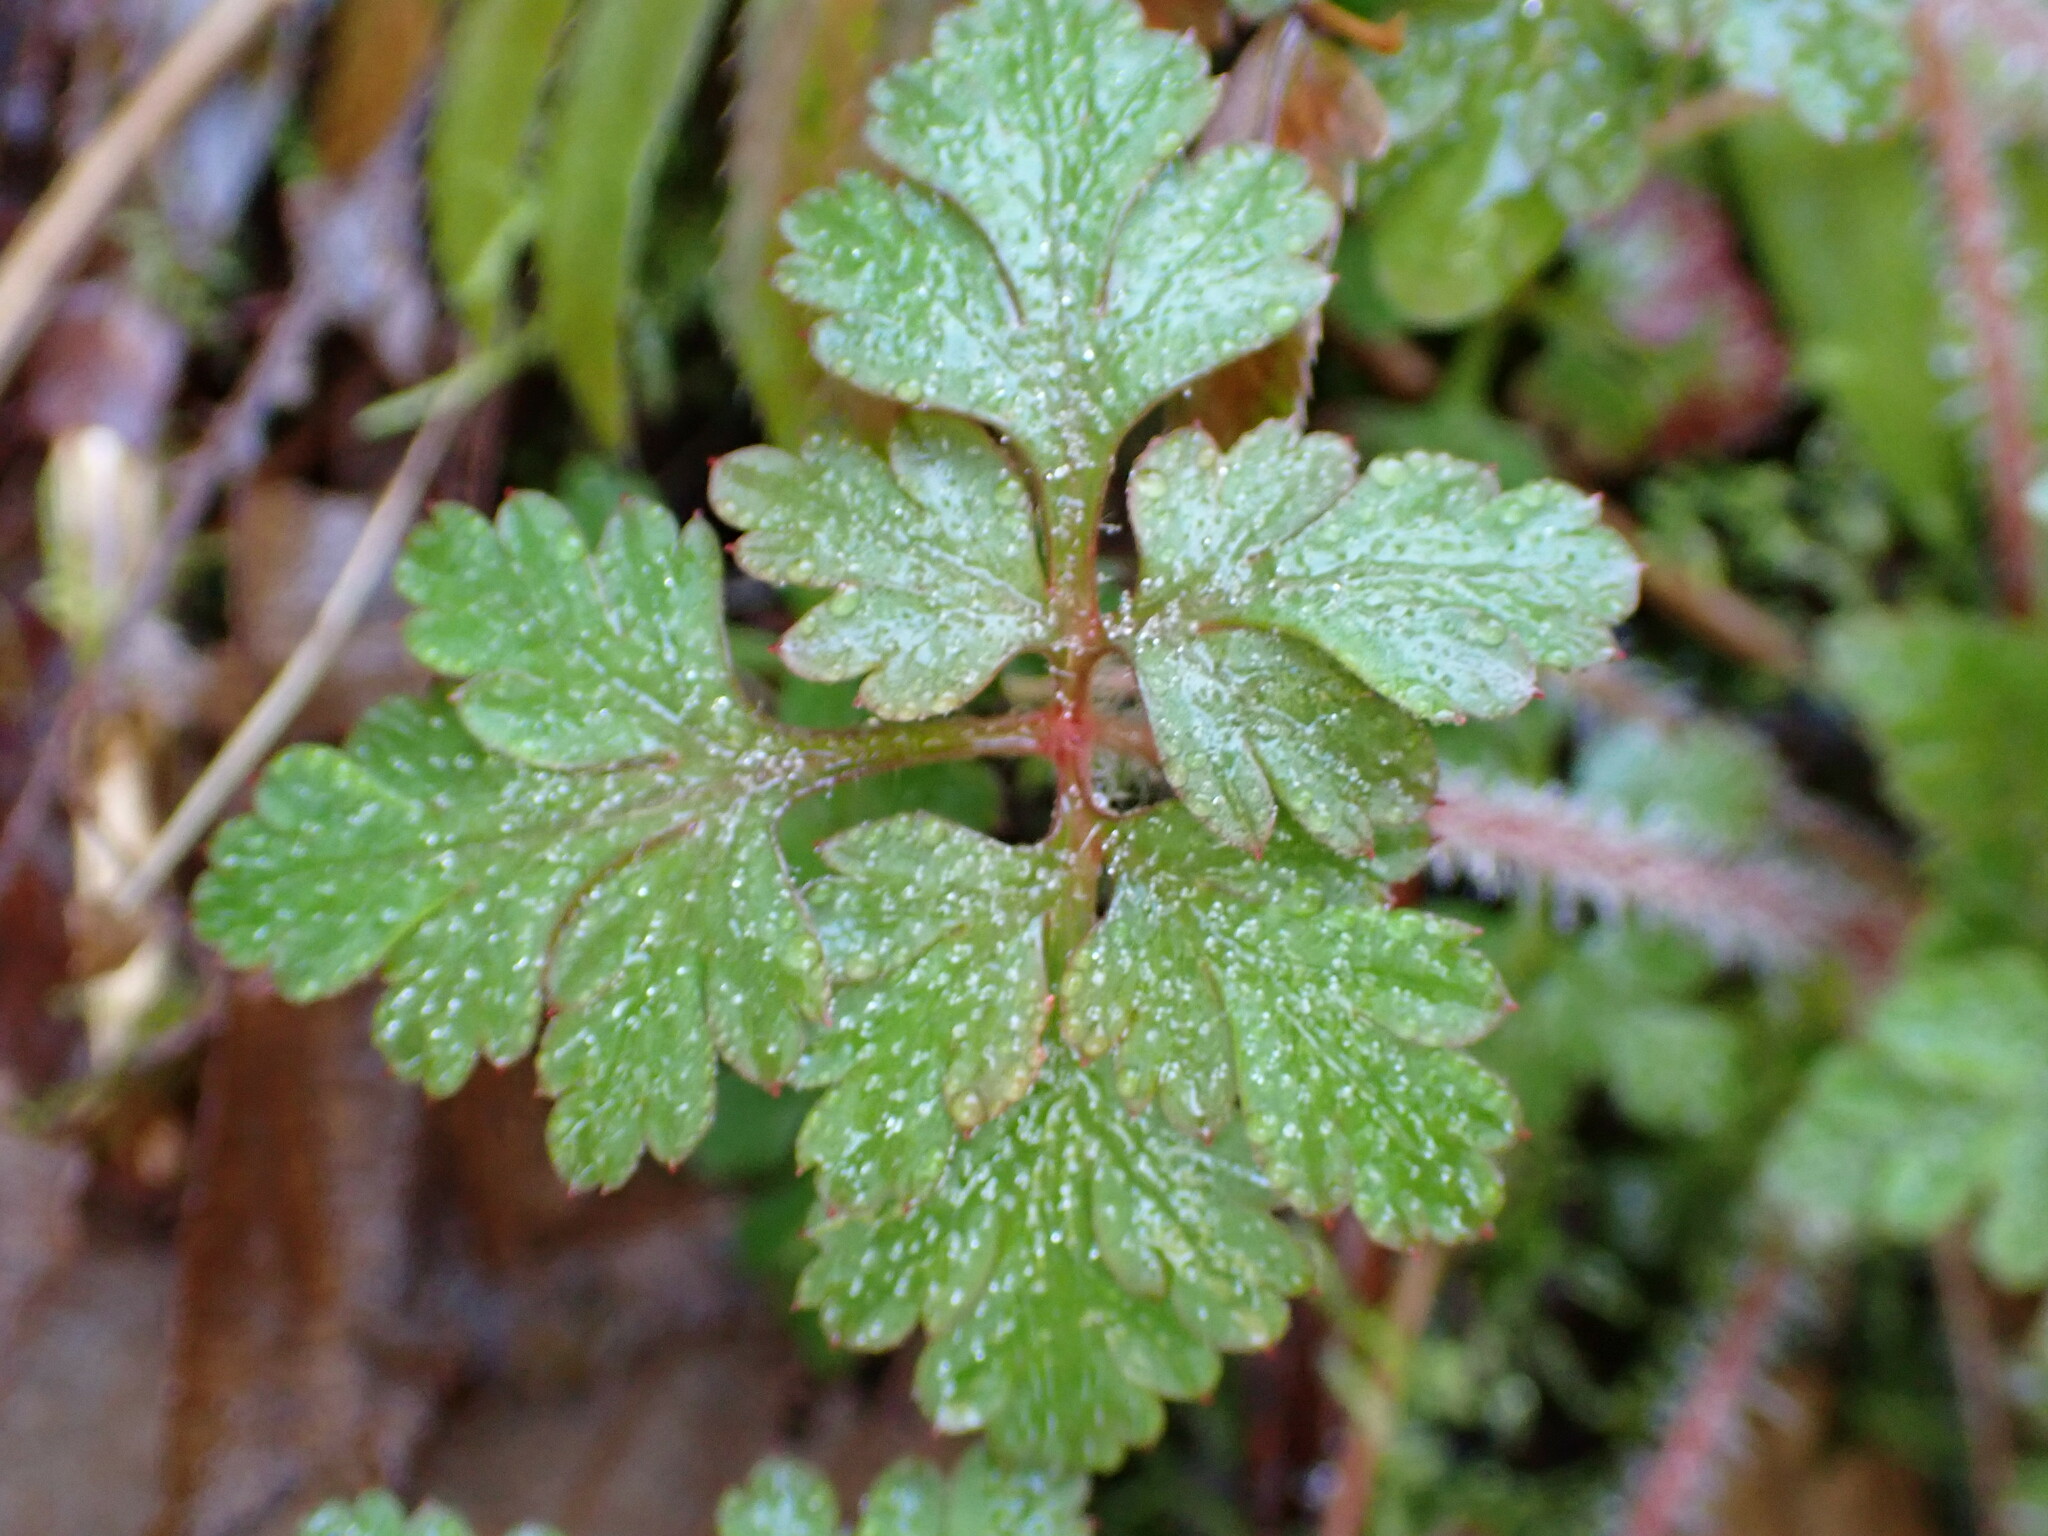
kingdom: Plantae
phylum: Tracheophyta
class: Magnoliopsida
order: Geraniales
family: Geraniaceae
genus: Geranium
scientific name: Geranium robertianum
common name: Herb-robert
